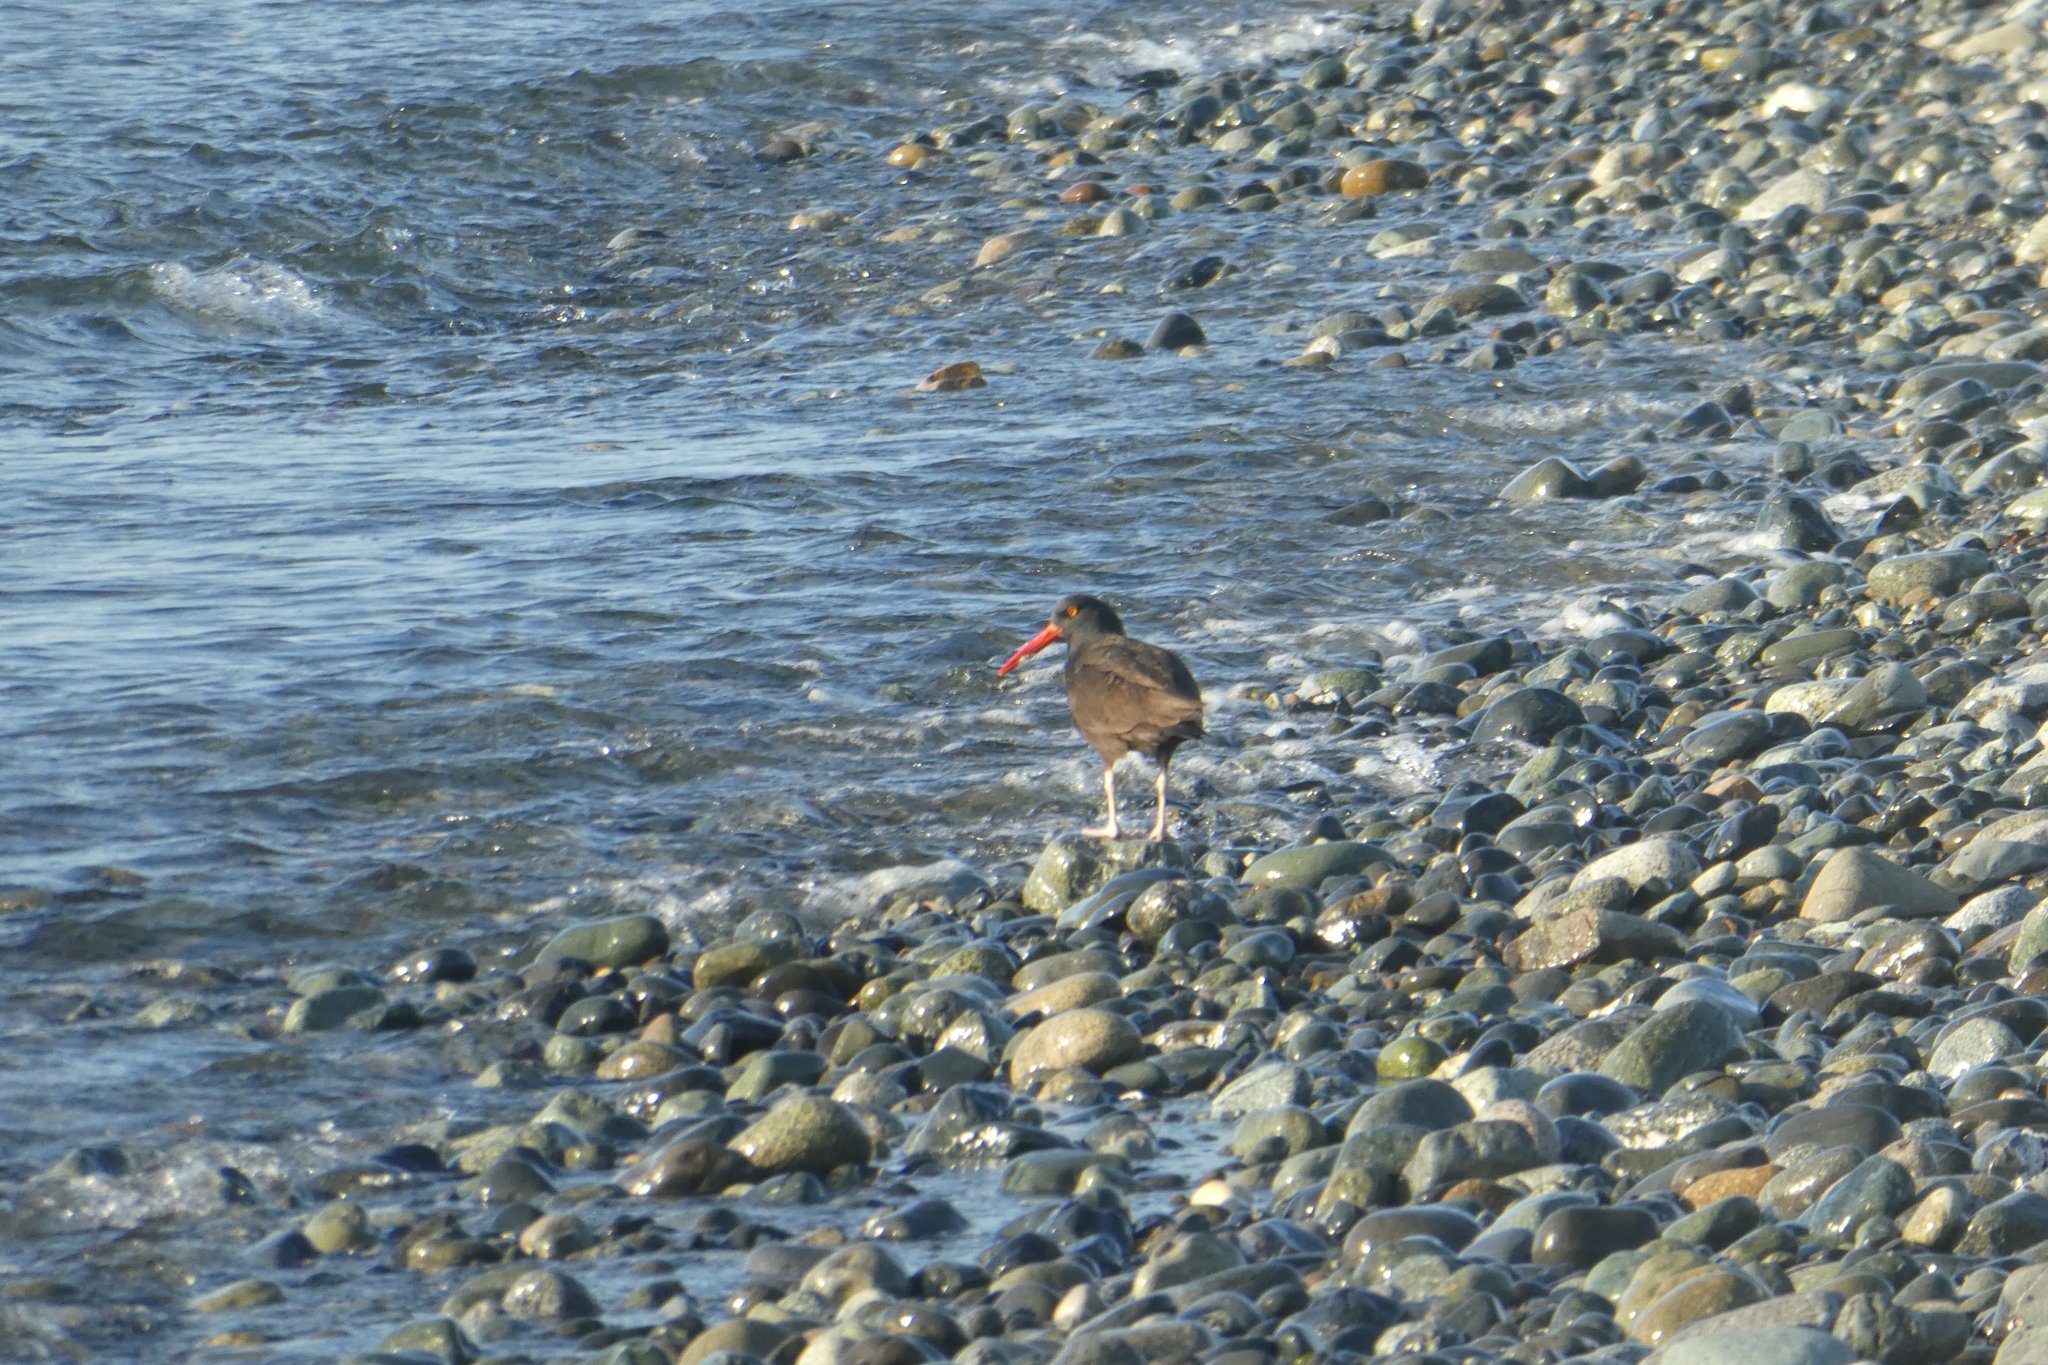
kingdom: Animalia
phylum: Chordata
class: Aves
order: Charadriiformes
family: Haematopodidae
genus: Haematopus
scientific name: Haematopus bachmani
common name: Black oystercatcher
